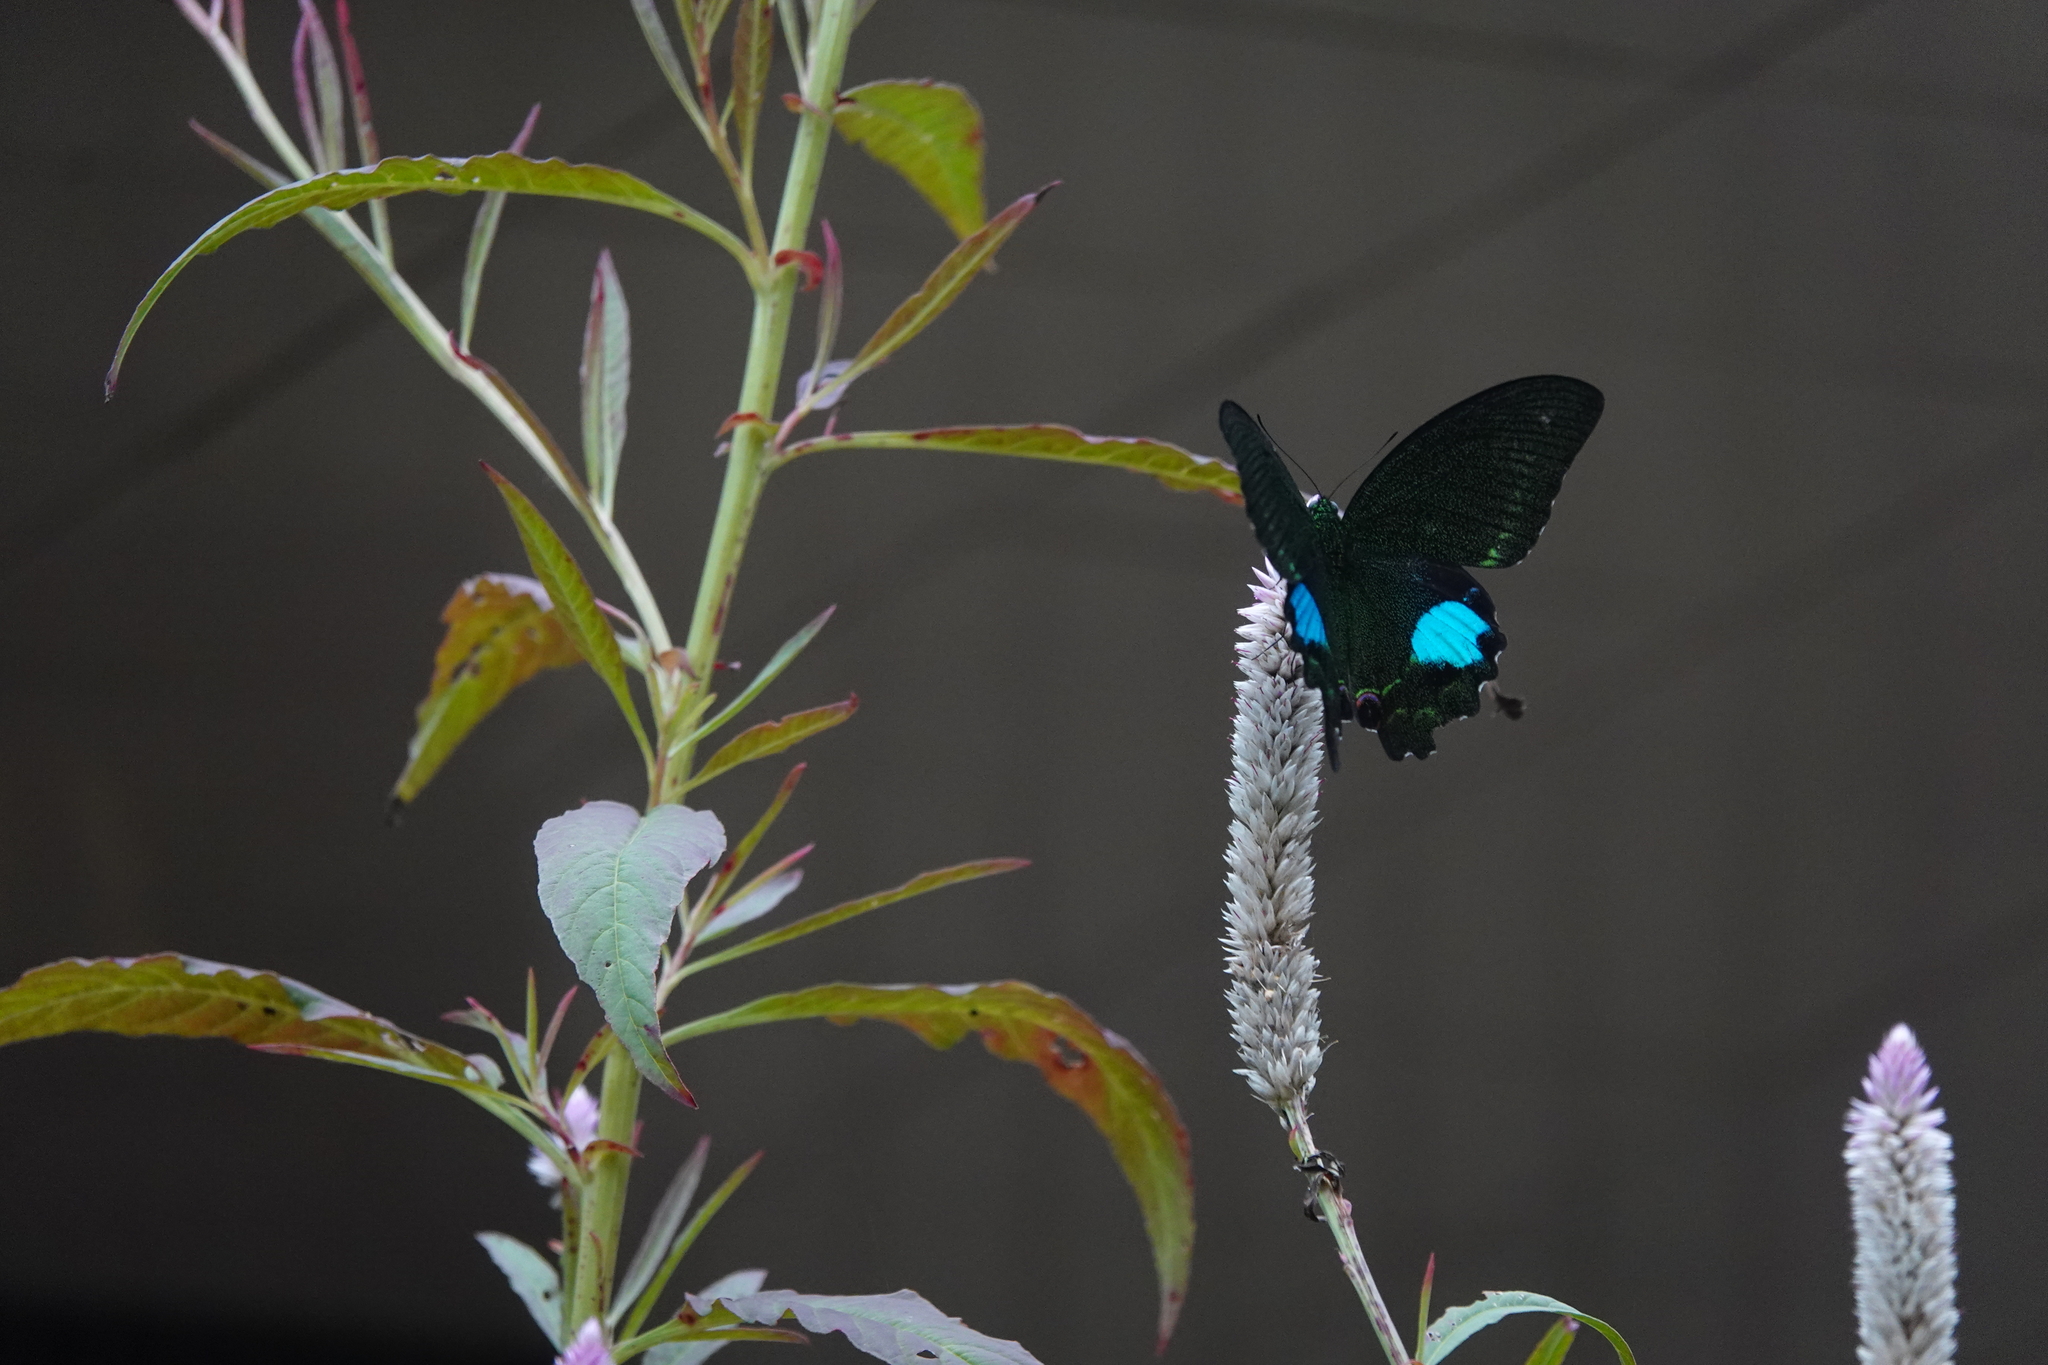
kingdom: Animalia
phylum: Arthropoda
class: Insecta
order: Lepidoptera
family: Papilionidae
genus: Papilio
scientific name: Papilio paris
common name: Paris peacock
